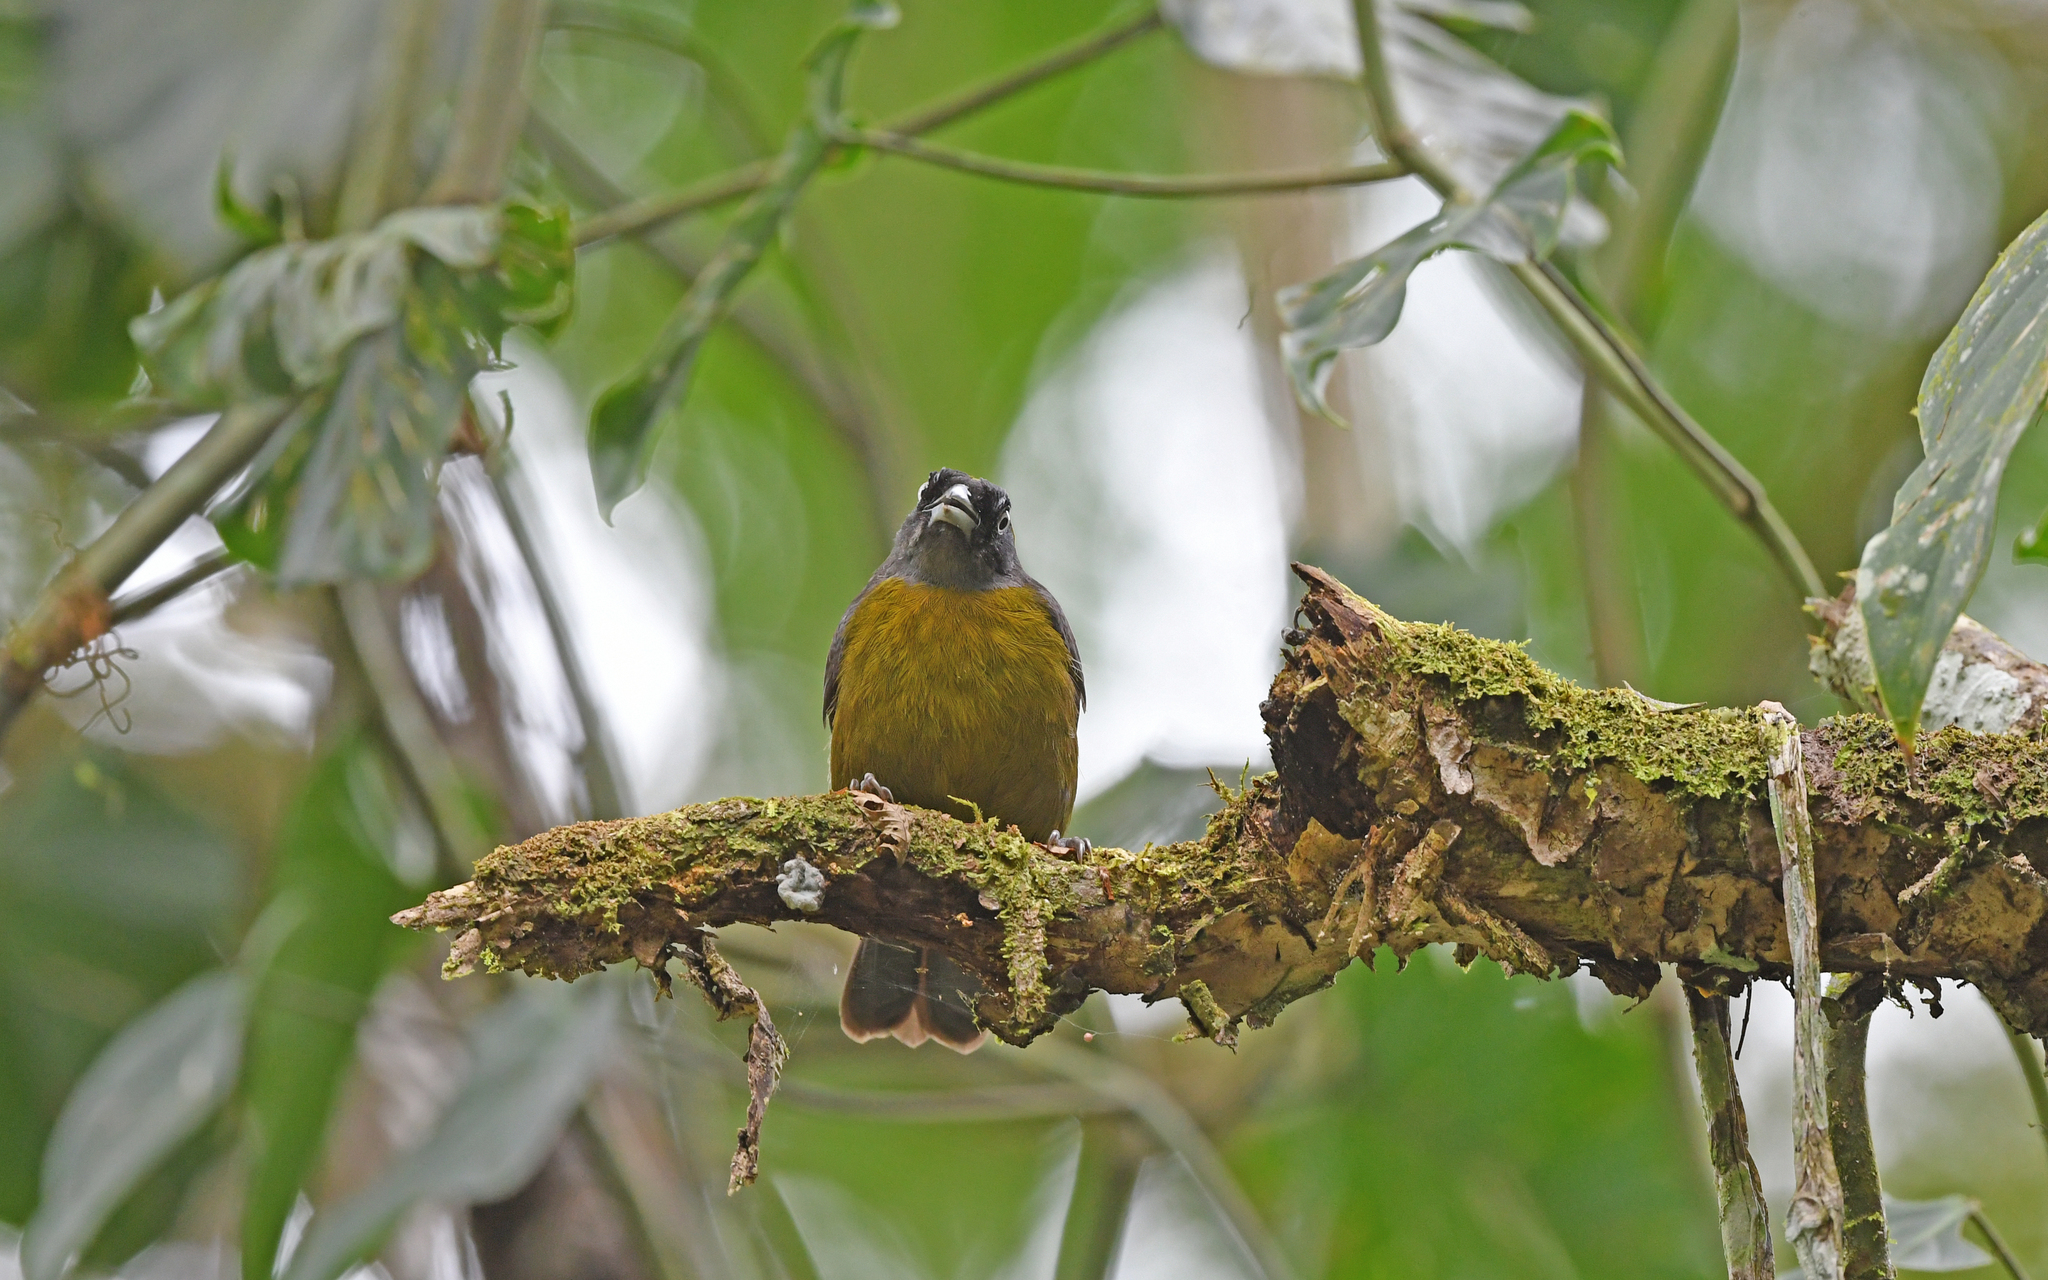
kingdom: Animalia
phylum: Chordata
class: Aves
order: Passeriformes
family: Mitrospingidae
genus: Mitrospingus
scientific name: Mitrospingus cassinii
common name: Dusky-faced tanager
